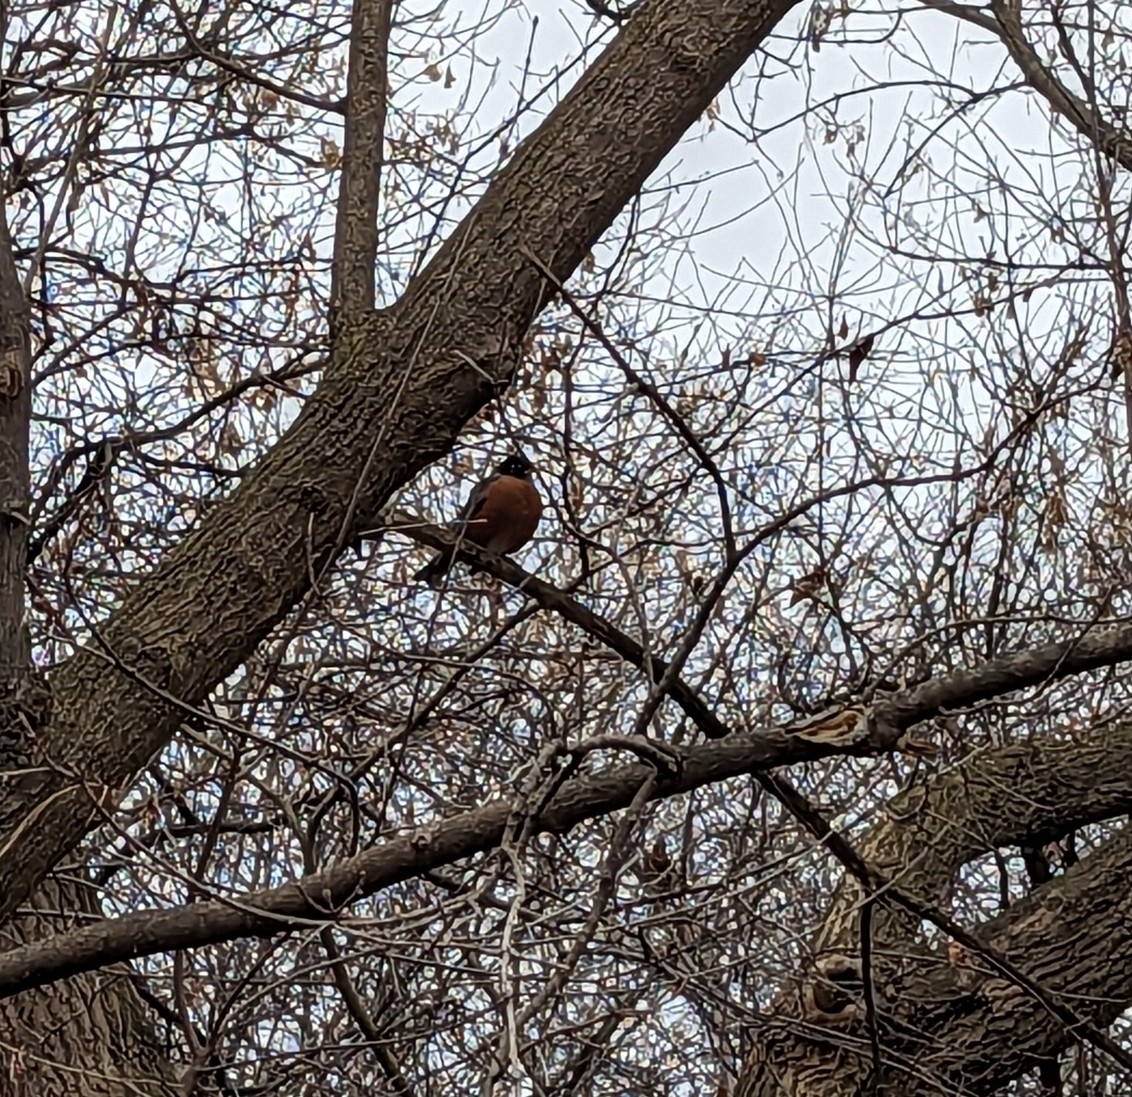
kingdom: Animalia
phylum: Chordata
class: Aves
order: Passeriformes
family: Turdidae
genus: Turdus
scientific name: Turdus migratorius
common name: American robin
